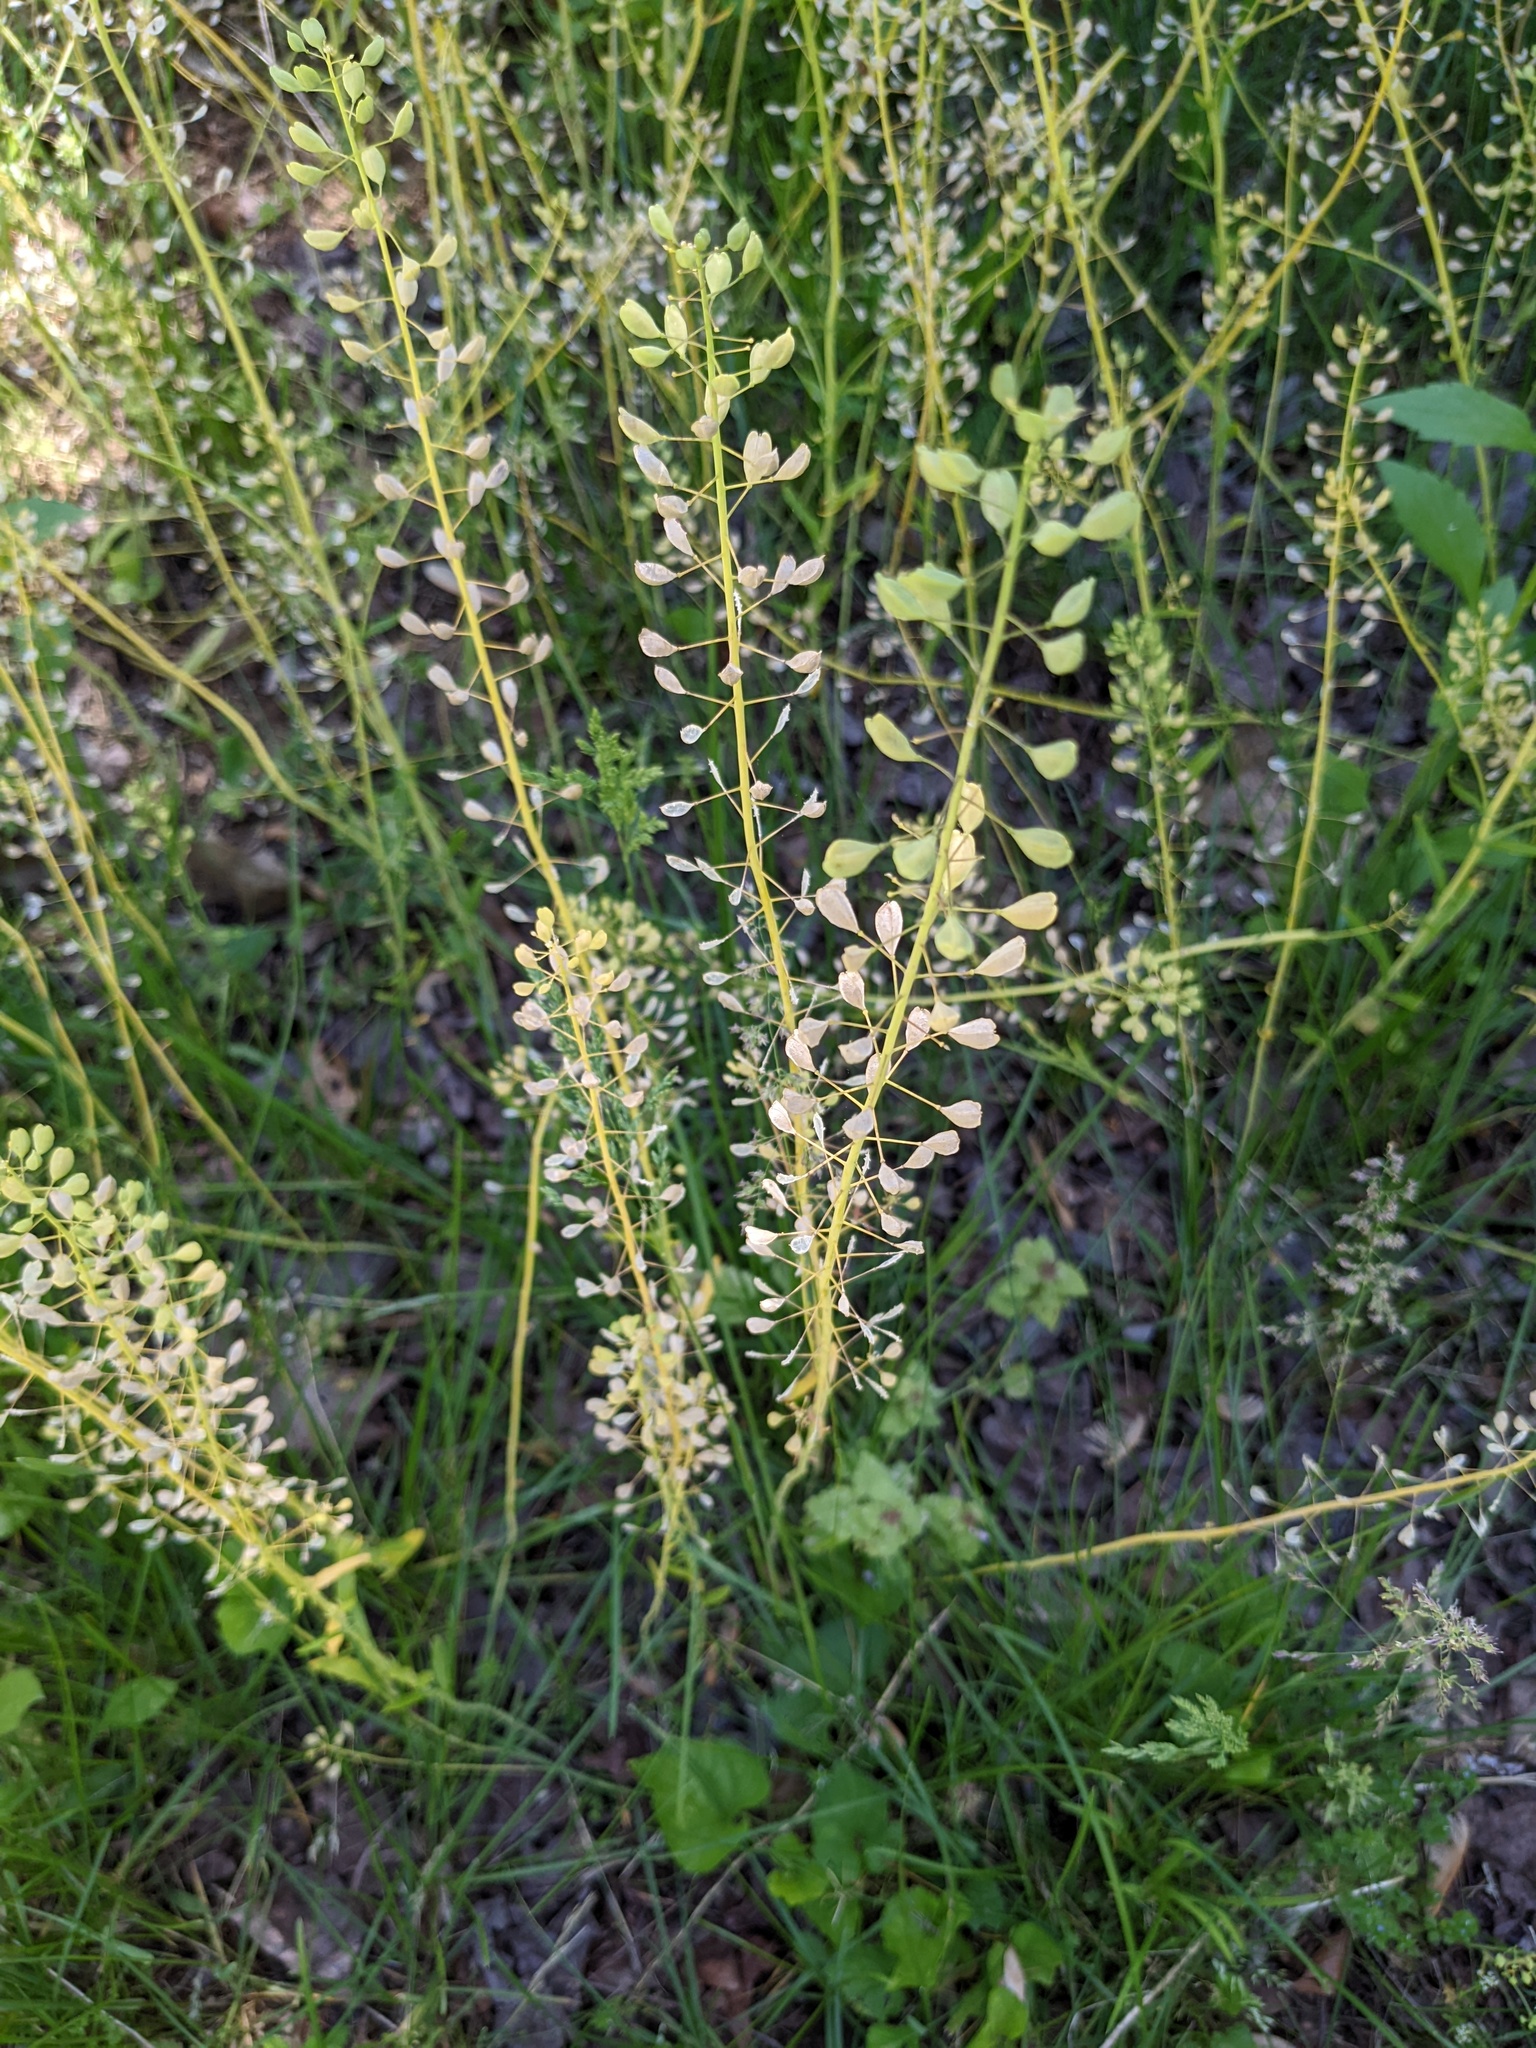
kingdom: Plantae
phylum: Tracheophyta
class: Magnoliopsida
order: Brassicales
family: Brassicaceae
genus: Mummenhoffia
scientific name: Mummenhoffia alliacea
